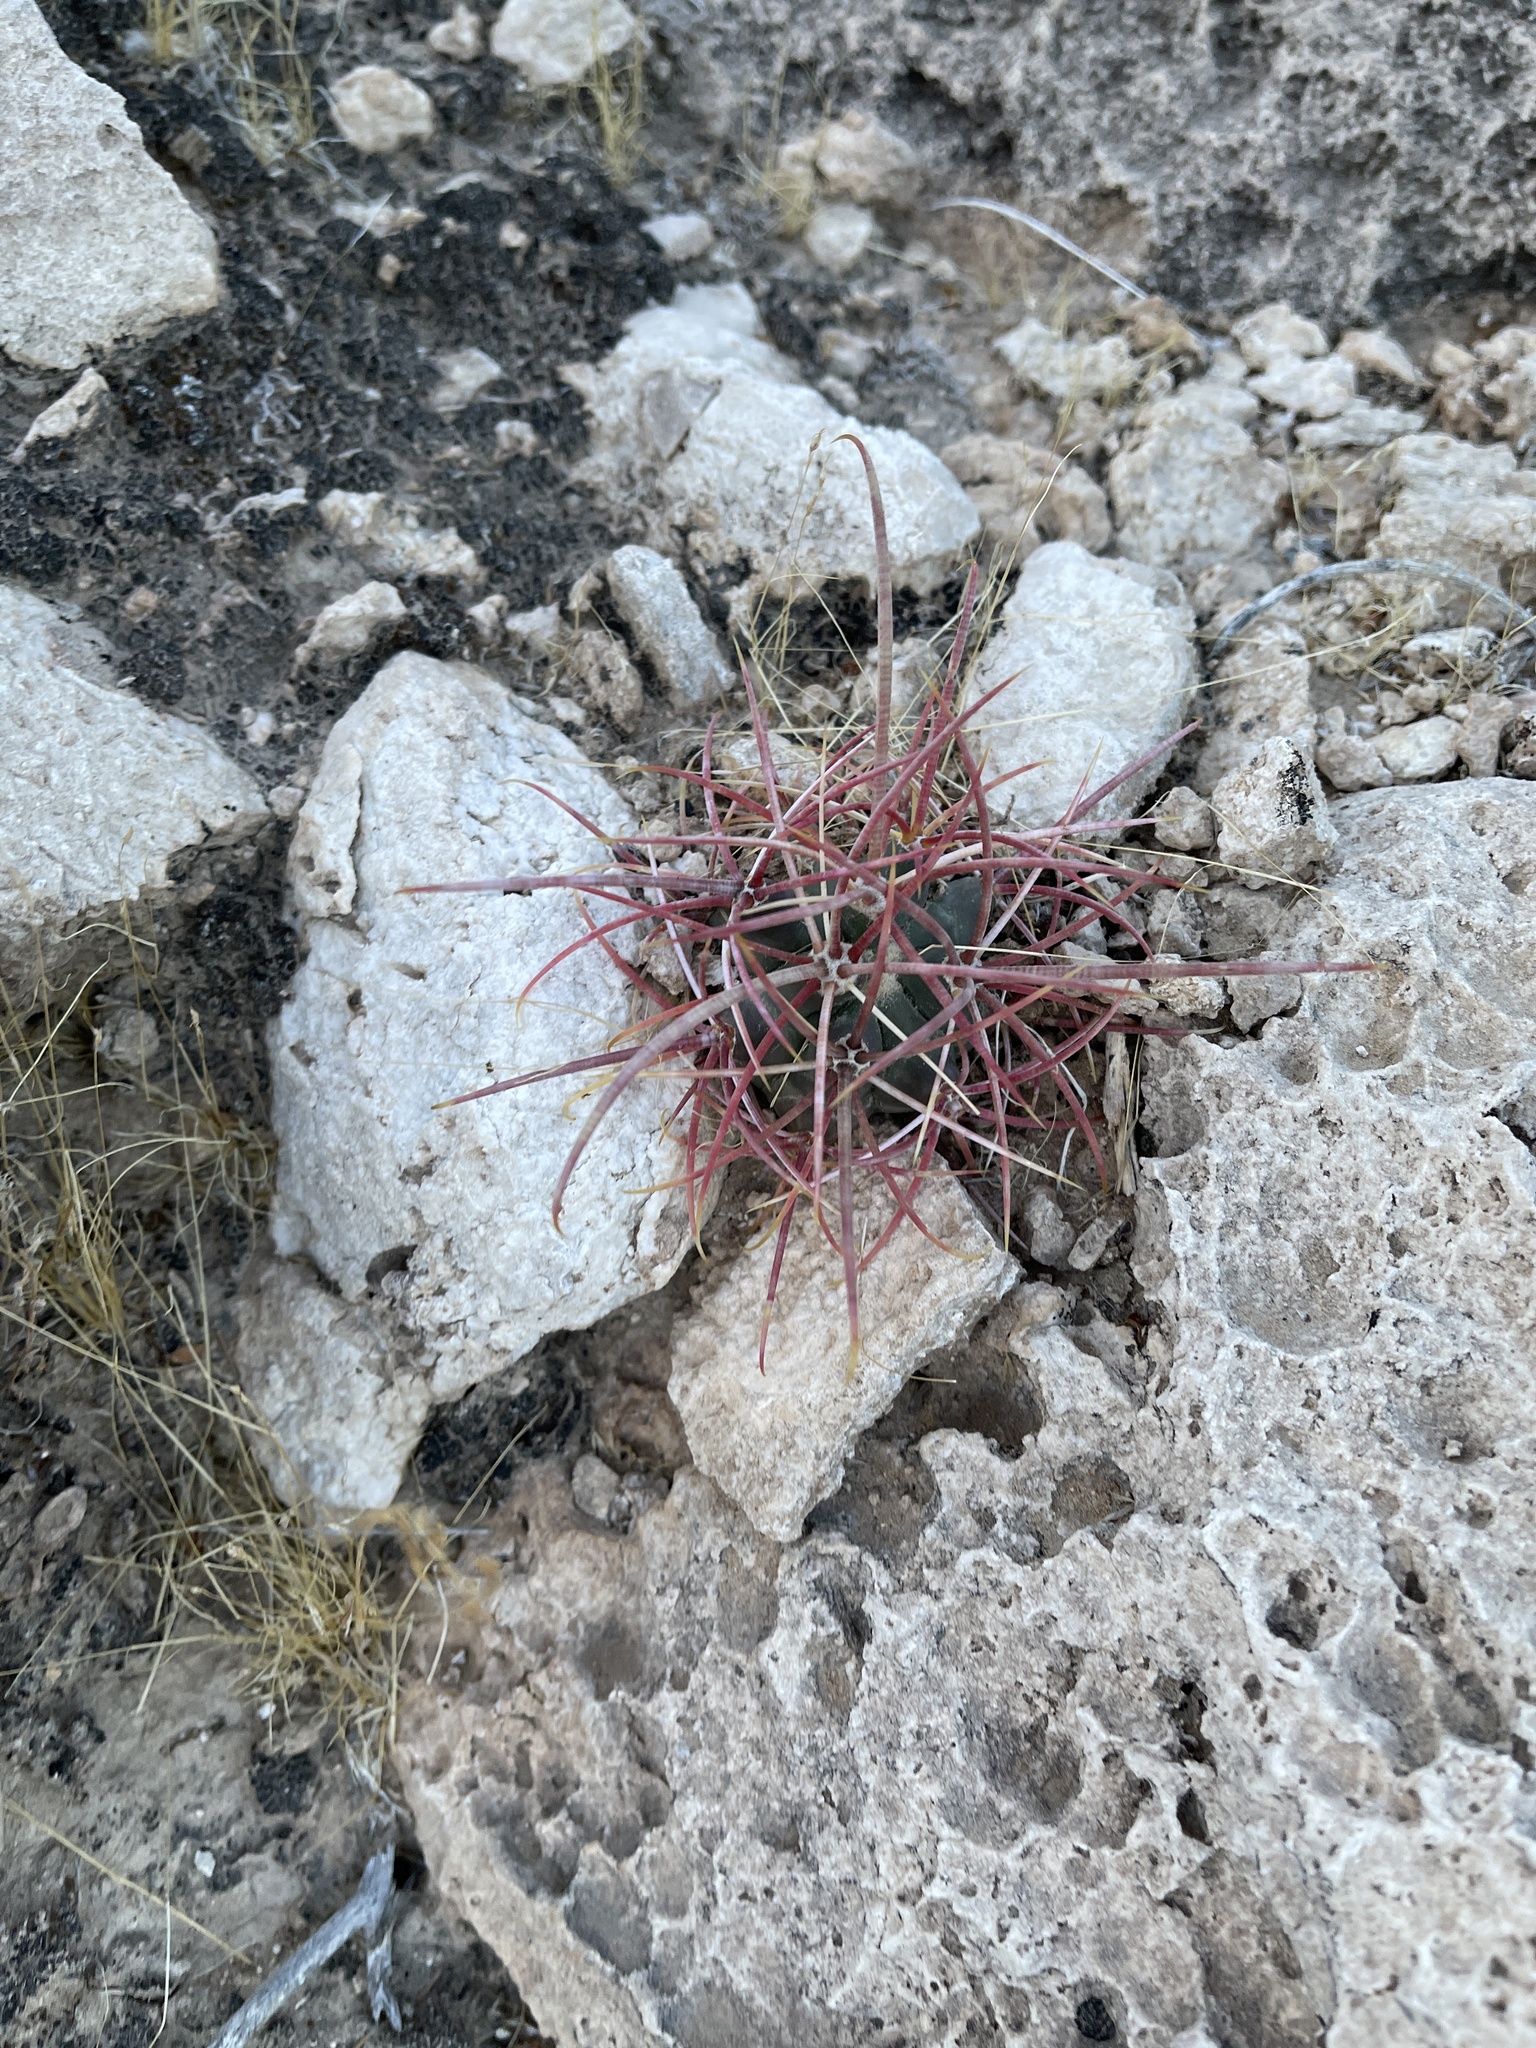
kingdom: Plantae
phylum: Tracheophyta
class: Magnoliopsida
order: Caryophyllales
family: Cactaceae
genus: Ferocactus
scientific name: Ferocactus cylindraceus
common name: California barrel cactus
